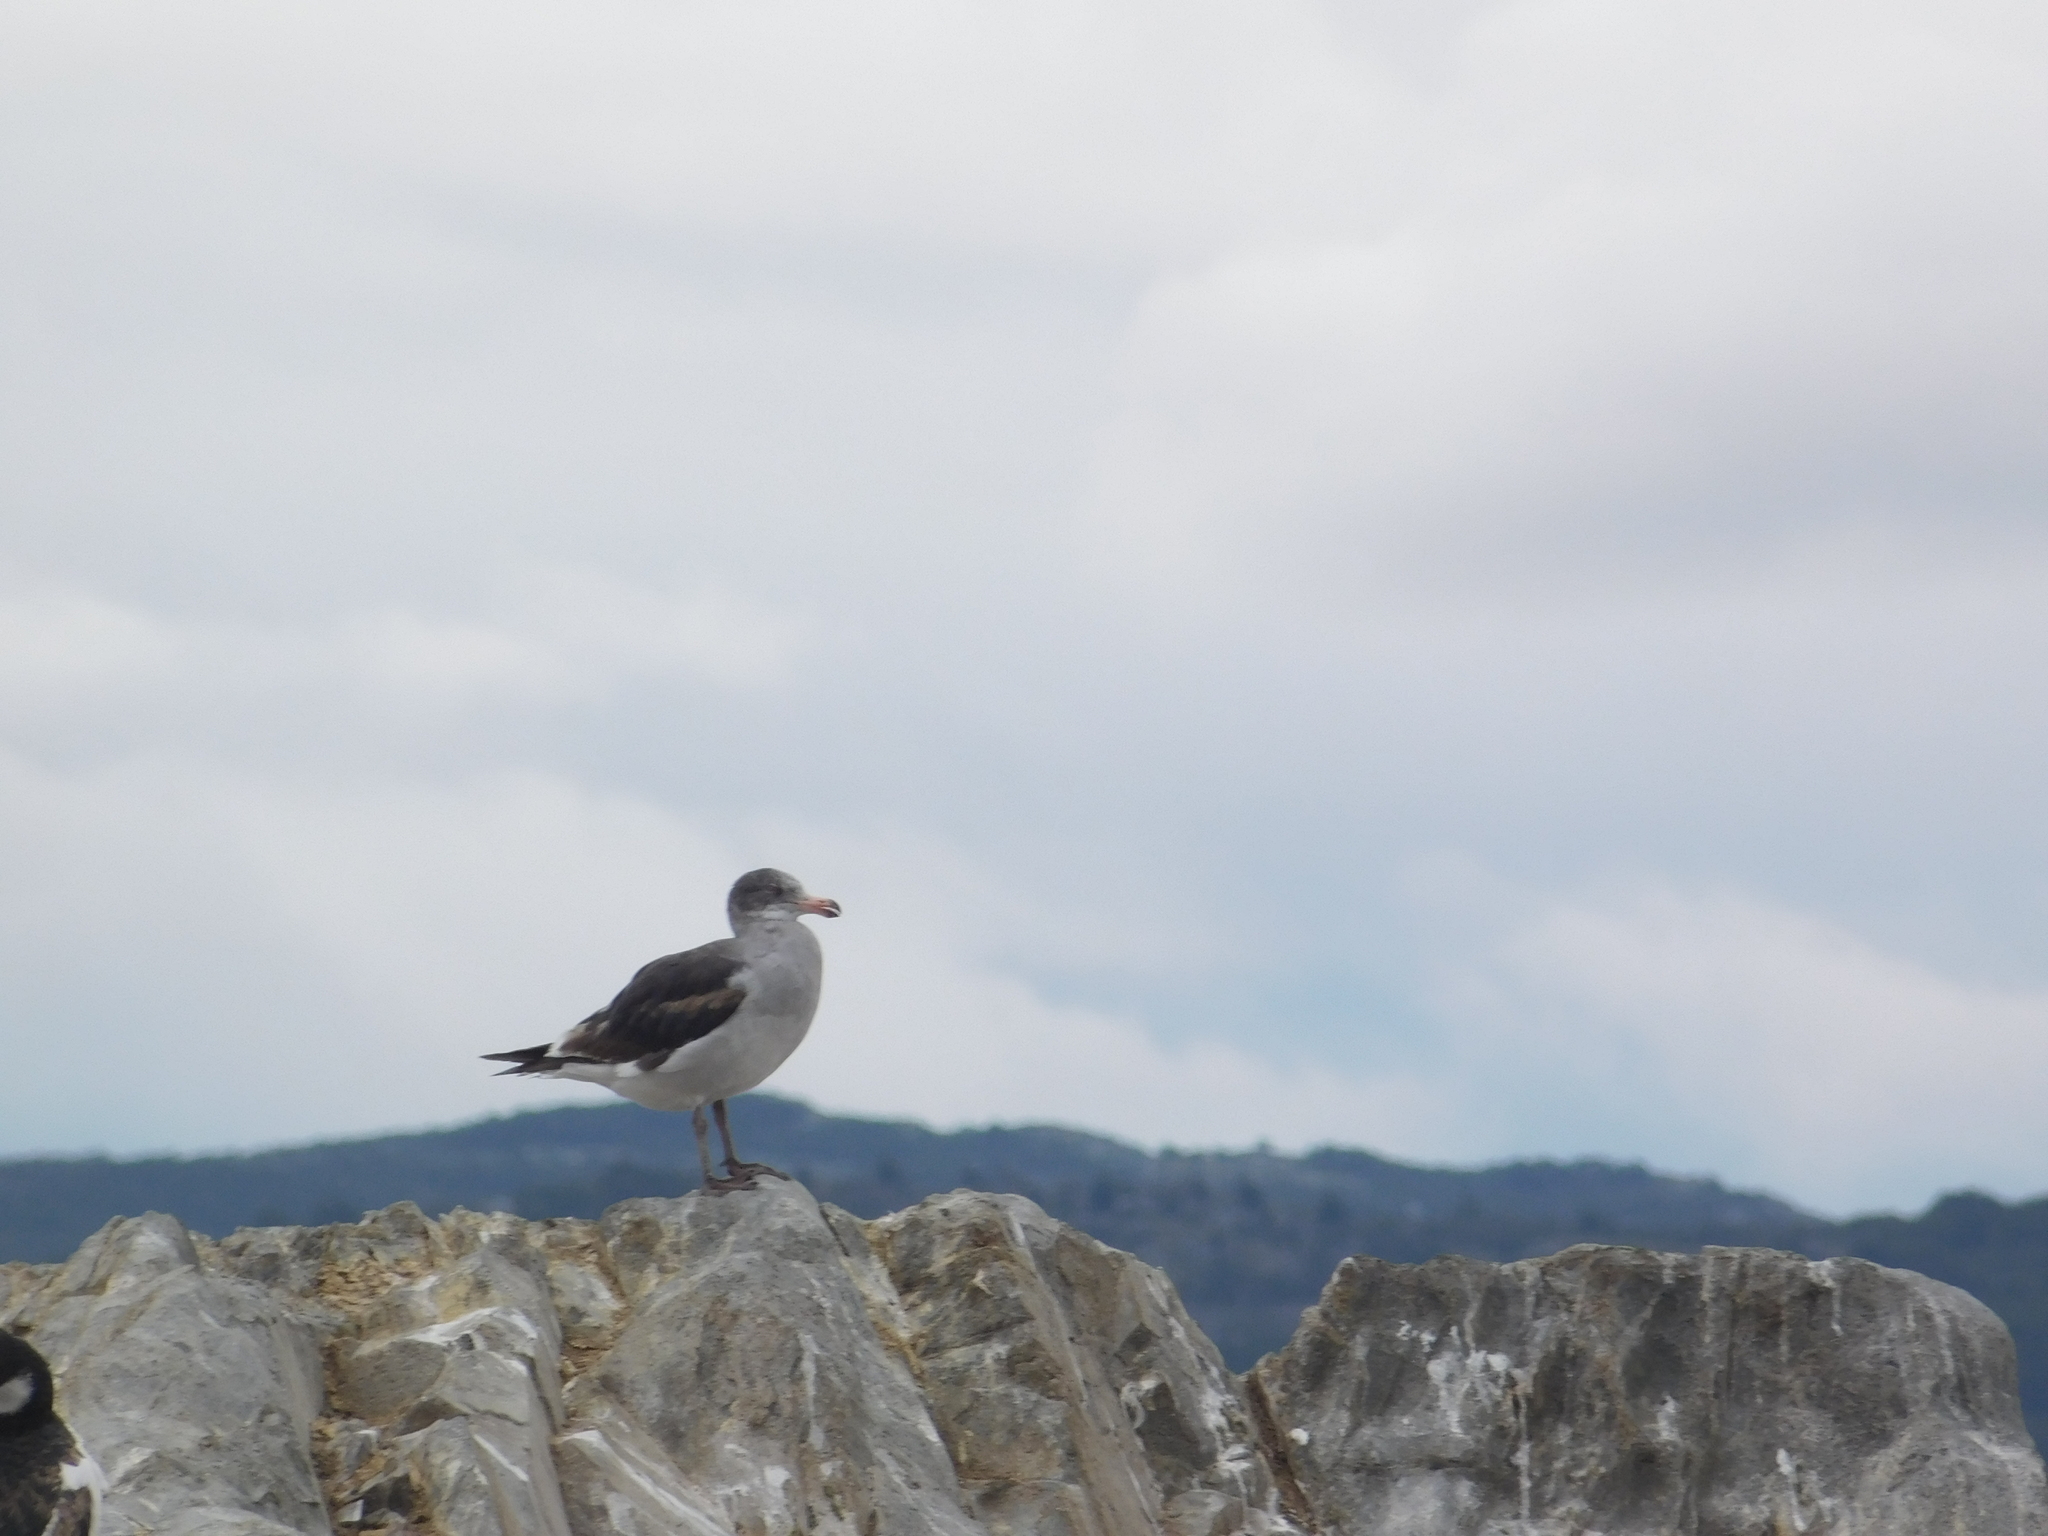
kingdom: Animalia
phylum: Chordata
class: Aves
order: Charadriiformes
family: Laridae
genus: Leucophaeus
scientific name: Leucophaeus scoresbii
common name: Dolphin gull
